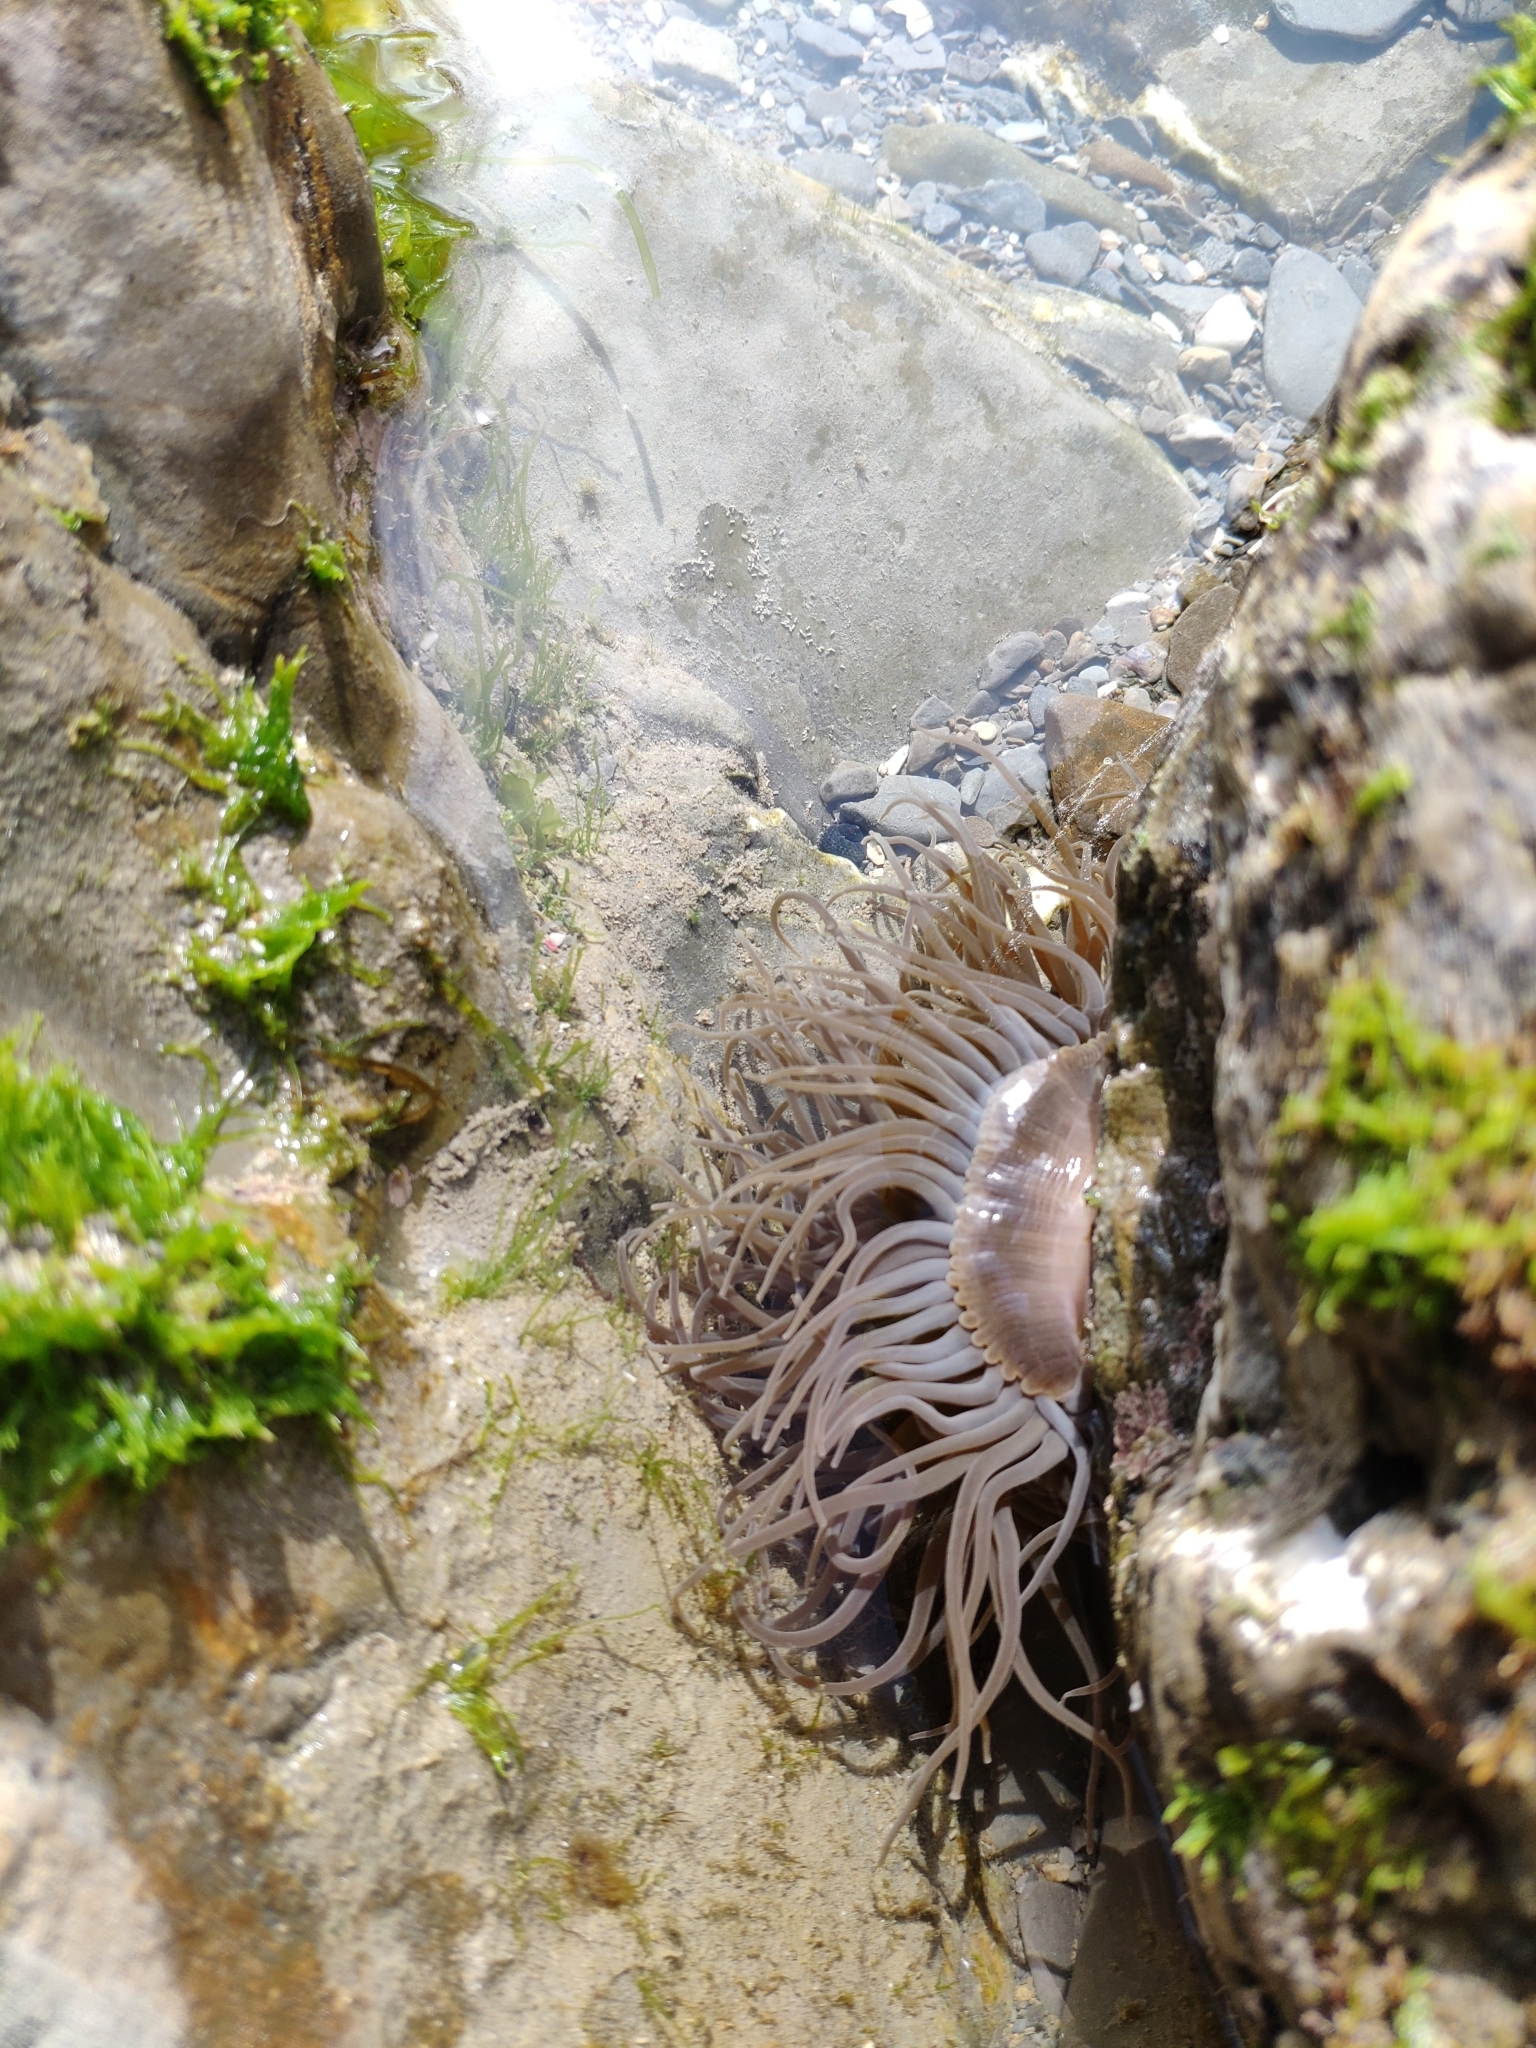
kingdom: Animalia
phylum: Cnidaria
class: Anthozoa
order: Actiniaria
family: Actiniidae
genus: Anemonia
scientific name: Anemonia viridis
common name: Snakelocks anemone
